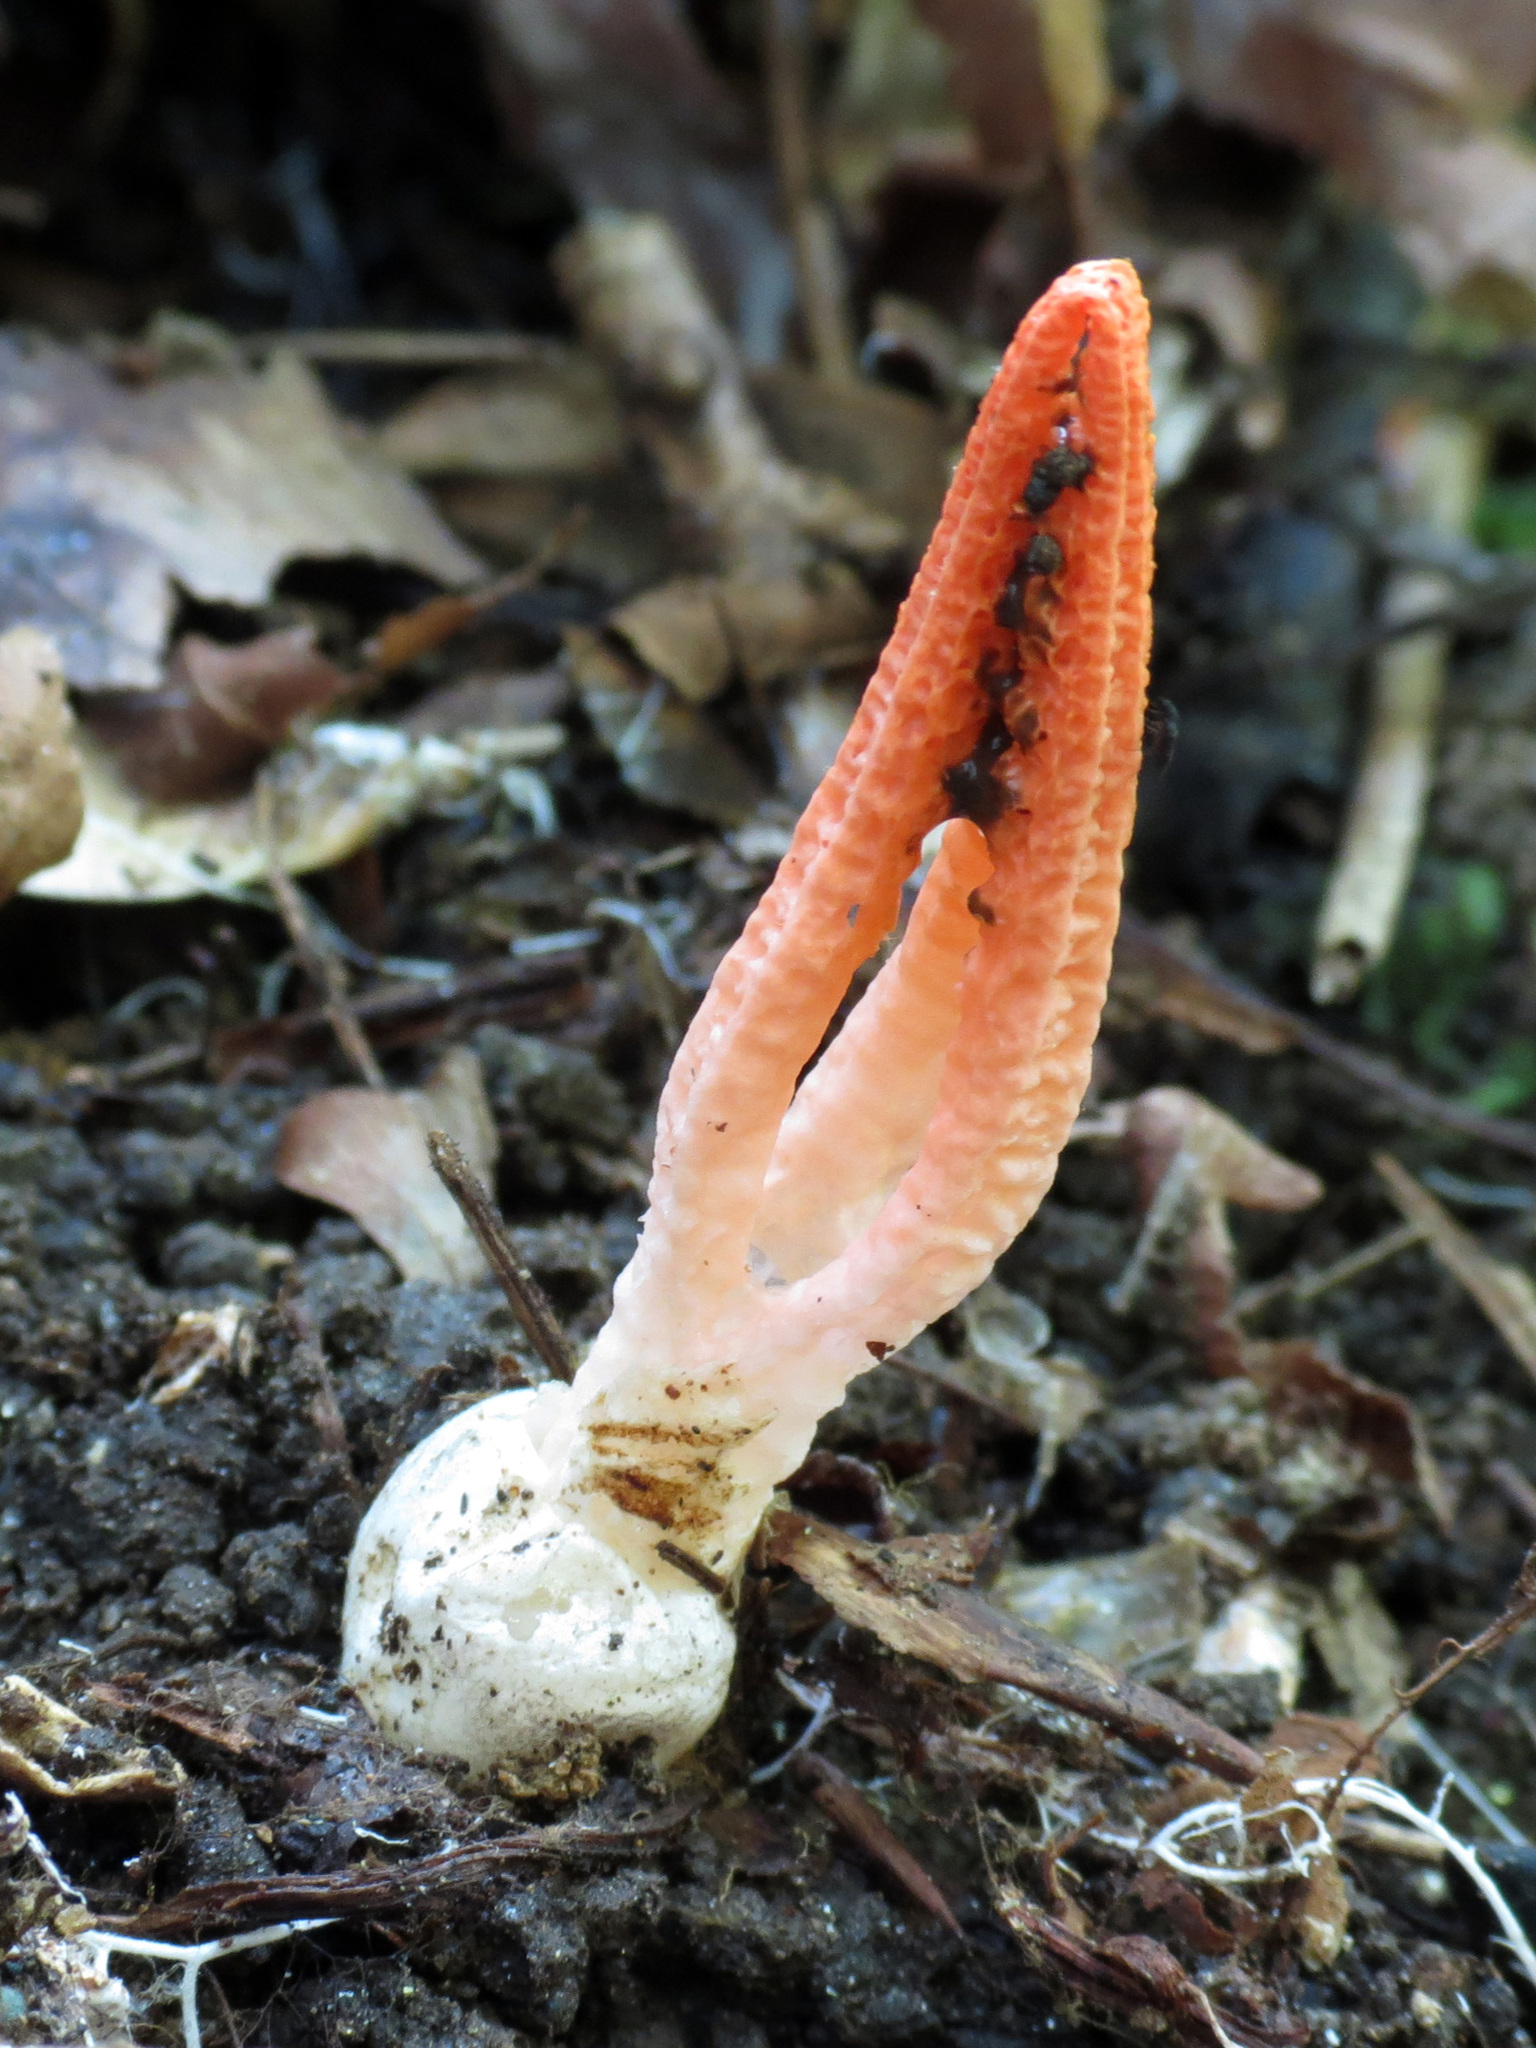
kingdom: Fungi
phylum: Basidiomycota
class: Agaricomycetes
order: Phallales
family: Phallaceae
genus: Pseudocolus
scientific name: Pseudocolus fusiformis
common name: Stinky squid
